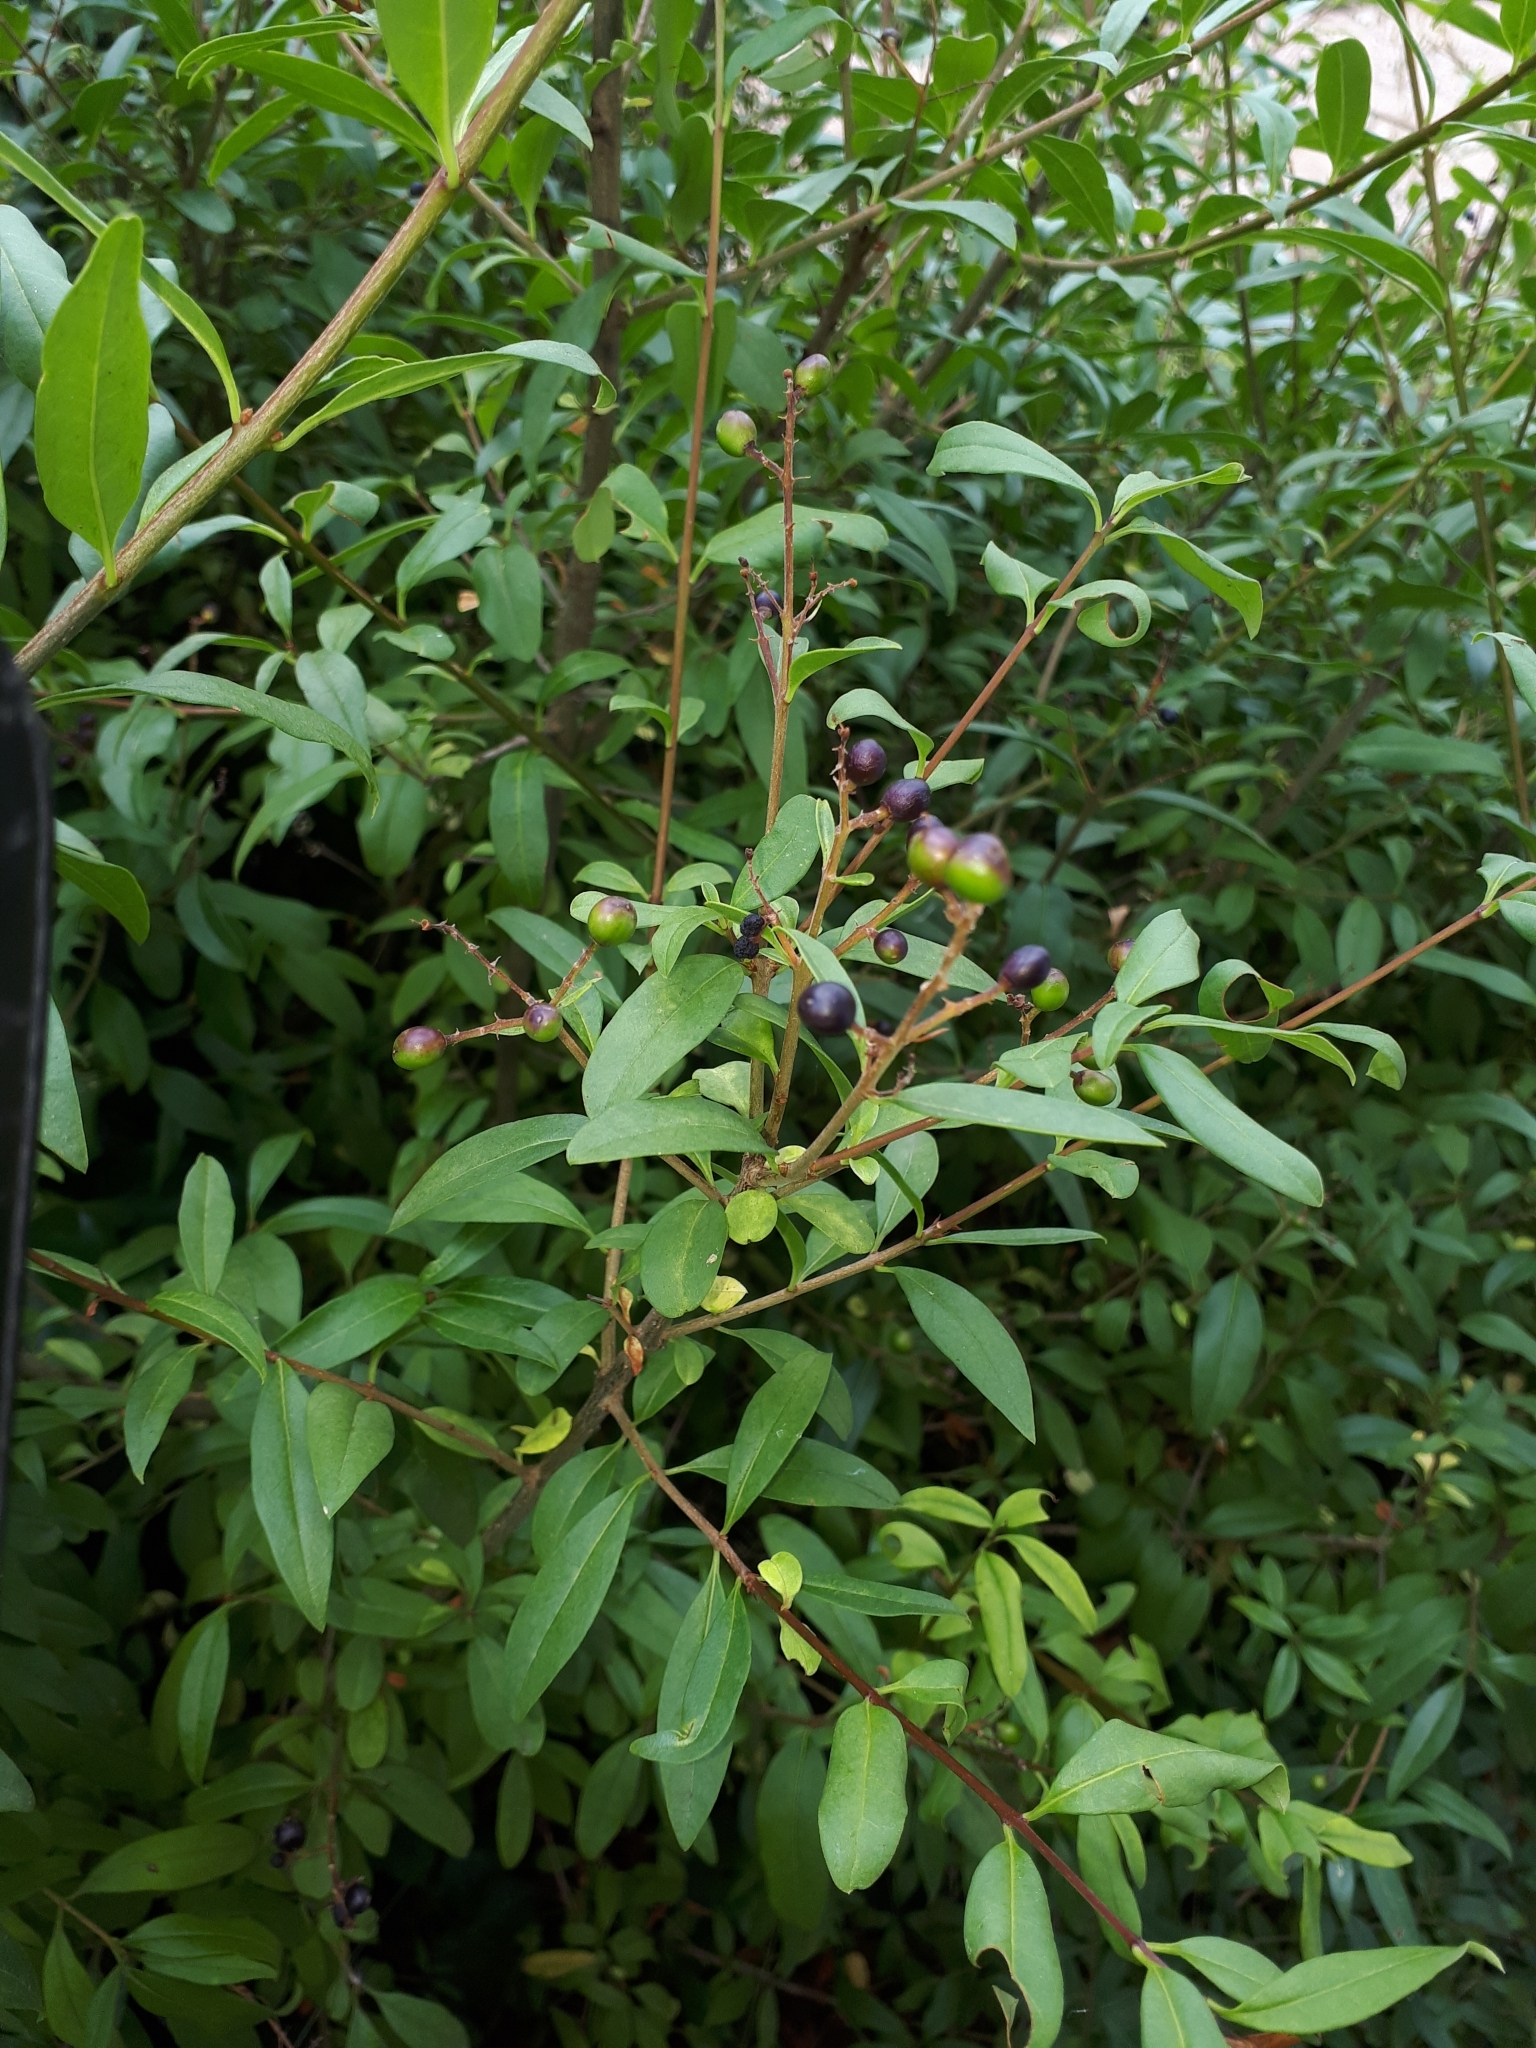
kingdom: Plantae
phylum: Tracheophyta
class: Magnoliopsida
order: Lamiales
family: Oleaceae
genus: Ligustrum
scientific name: Ligustrum vulgare
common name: Wild privet
